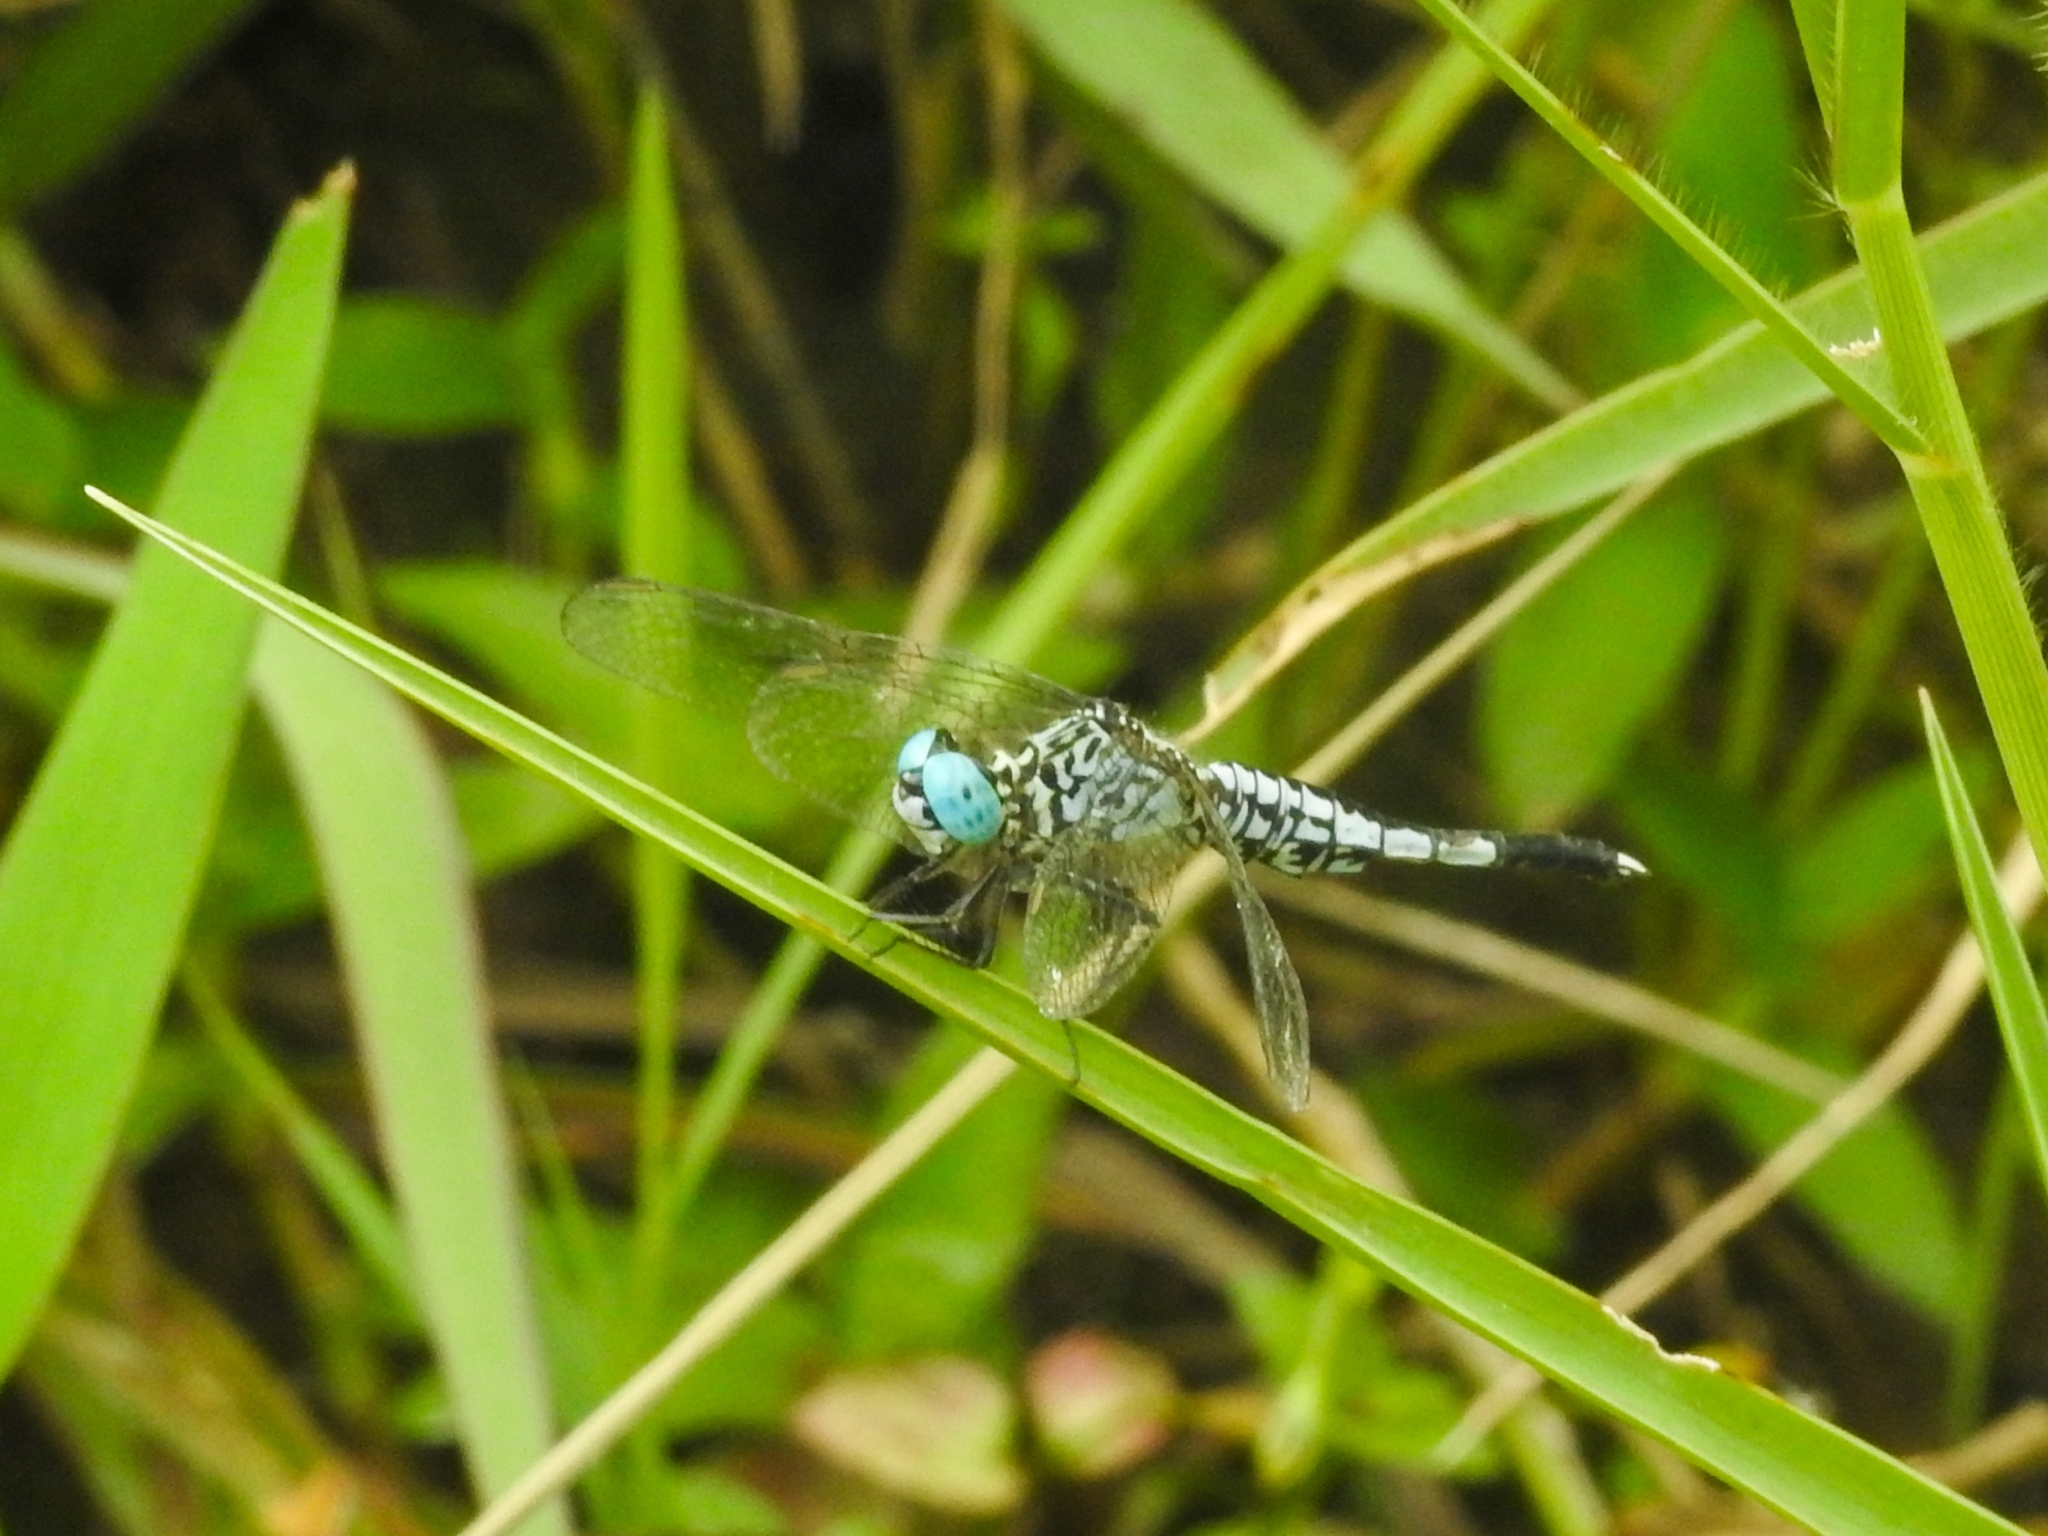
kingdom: Animalia
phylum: Arthropoda
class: Insecta
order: Odonata
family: Libellulidae
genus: Acisoma
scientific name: Acisoma panorpoides
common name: Asian pintail
